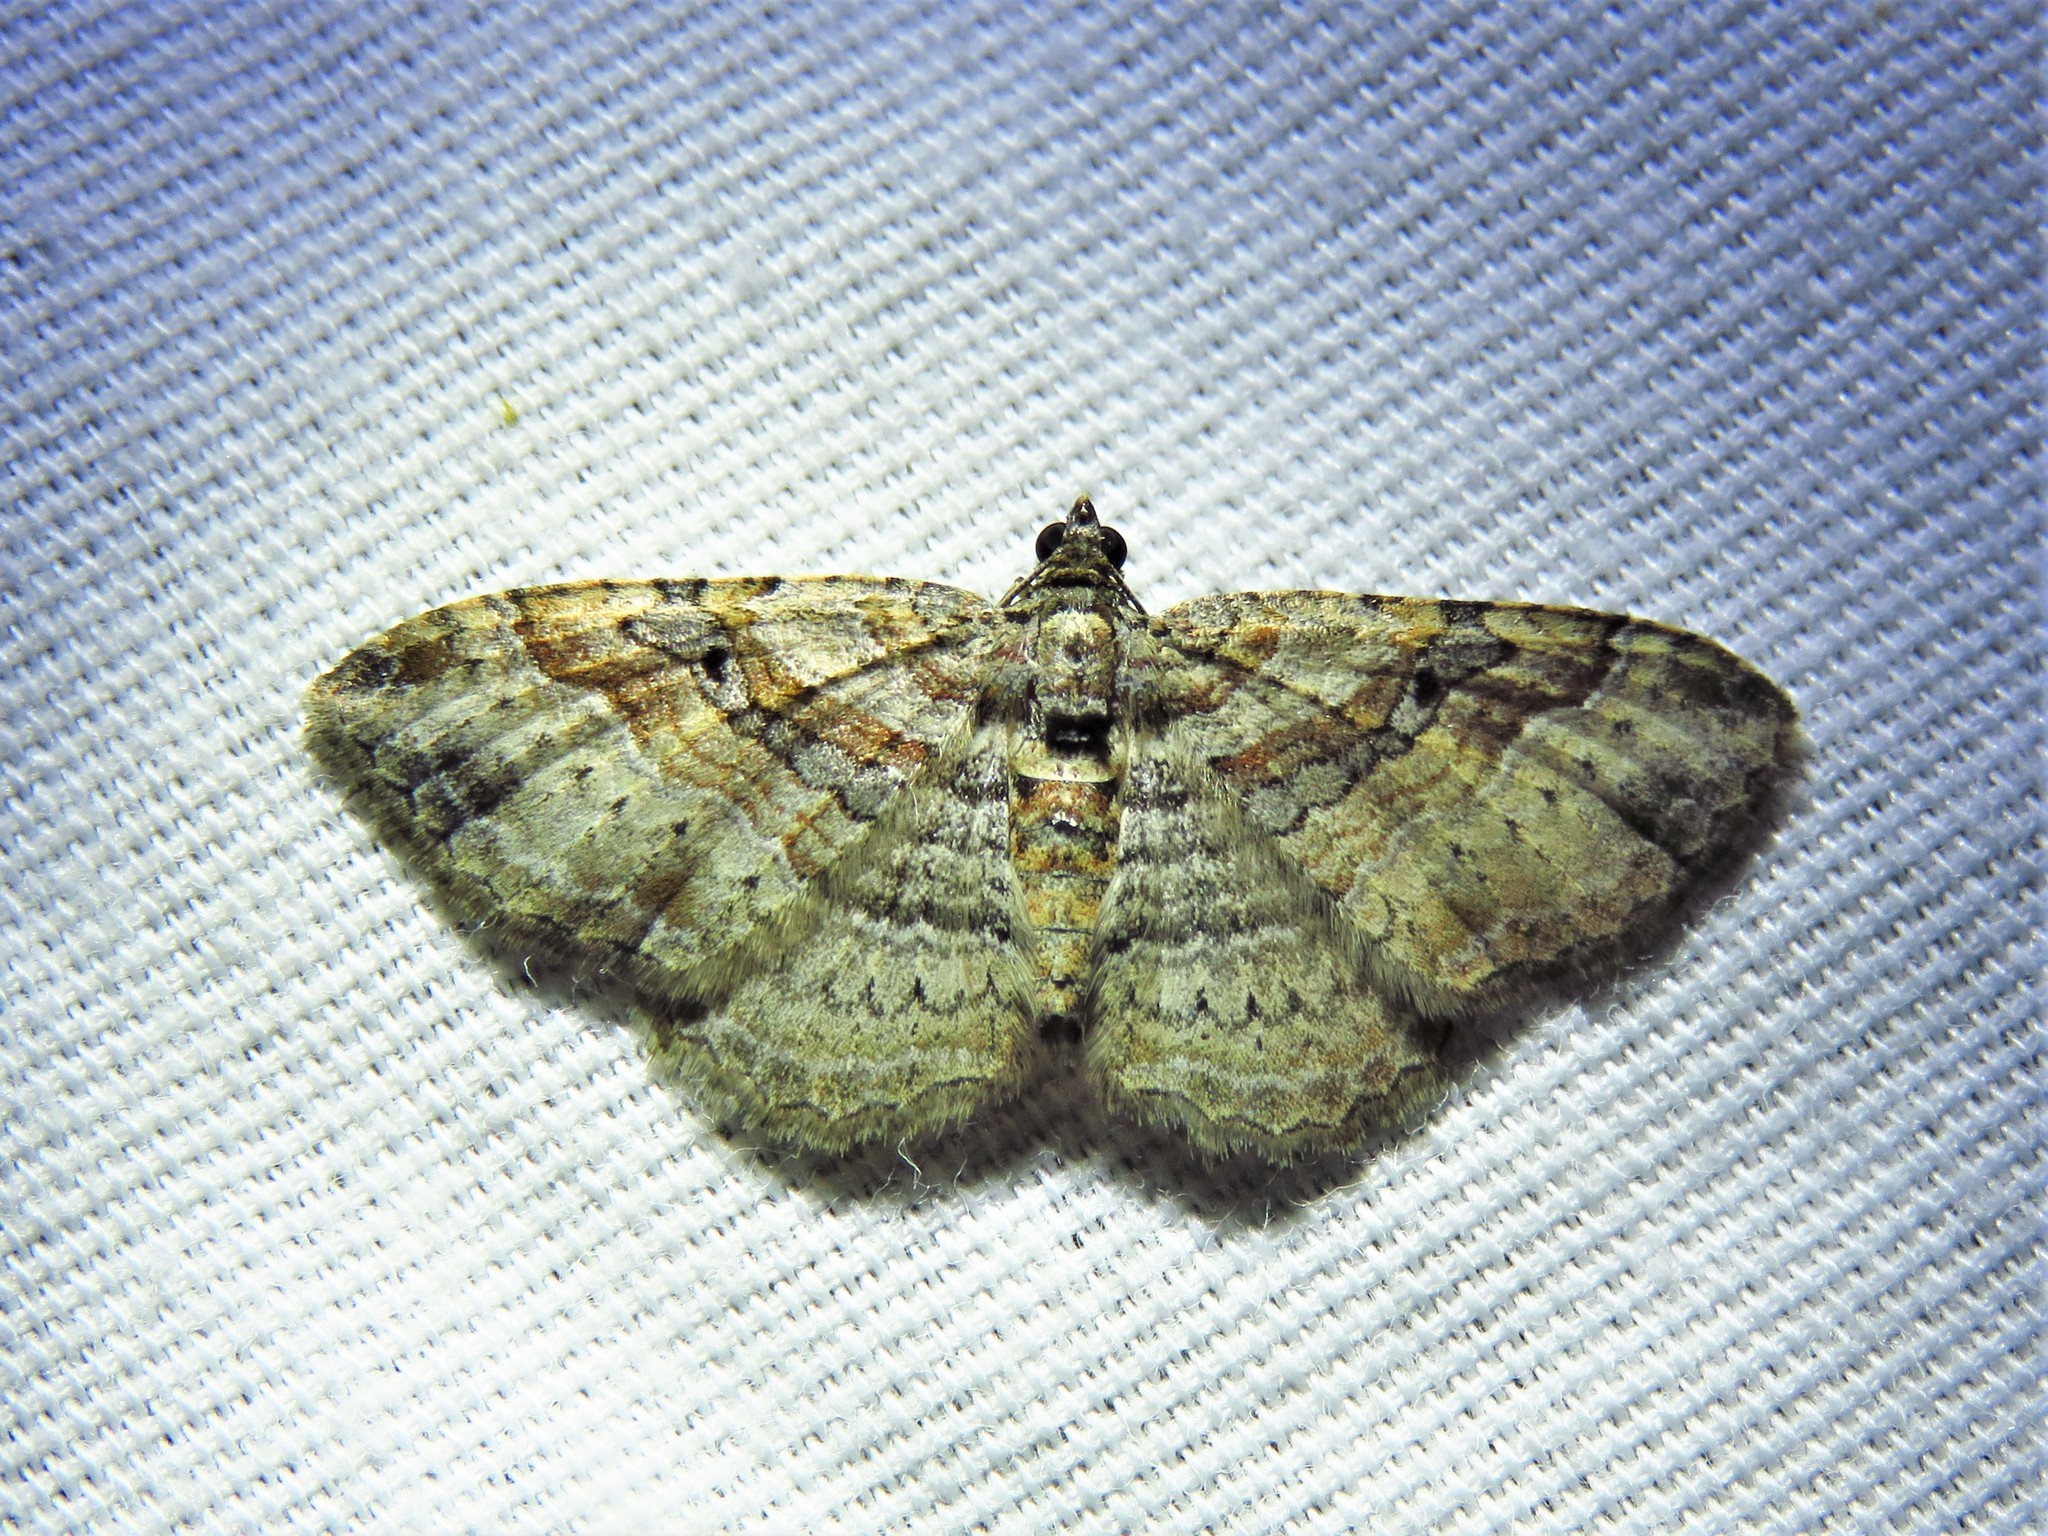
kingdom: Animalia
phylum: Arthropoda
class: Insecta
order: Lepidoptera
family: Geometridae
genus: Costaconvexa
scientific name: Costaconvexa centrostrigaria
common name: Bent-line carpet
